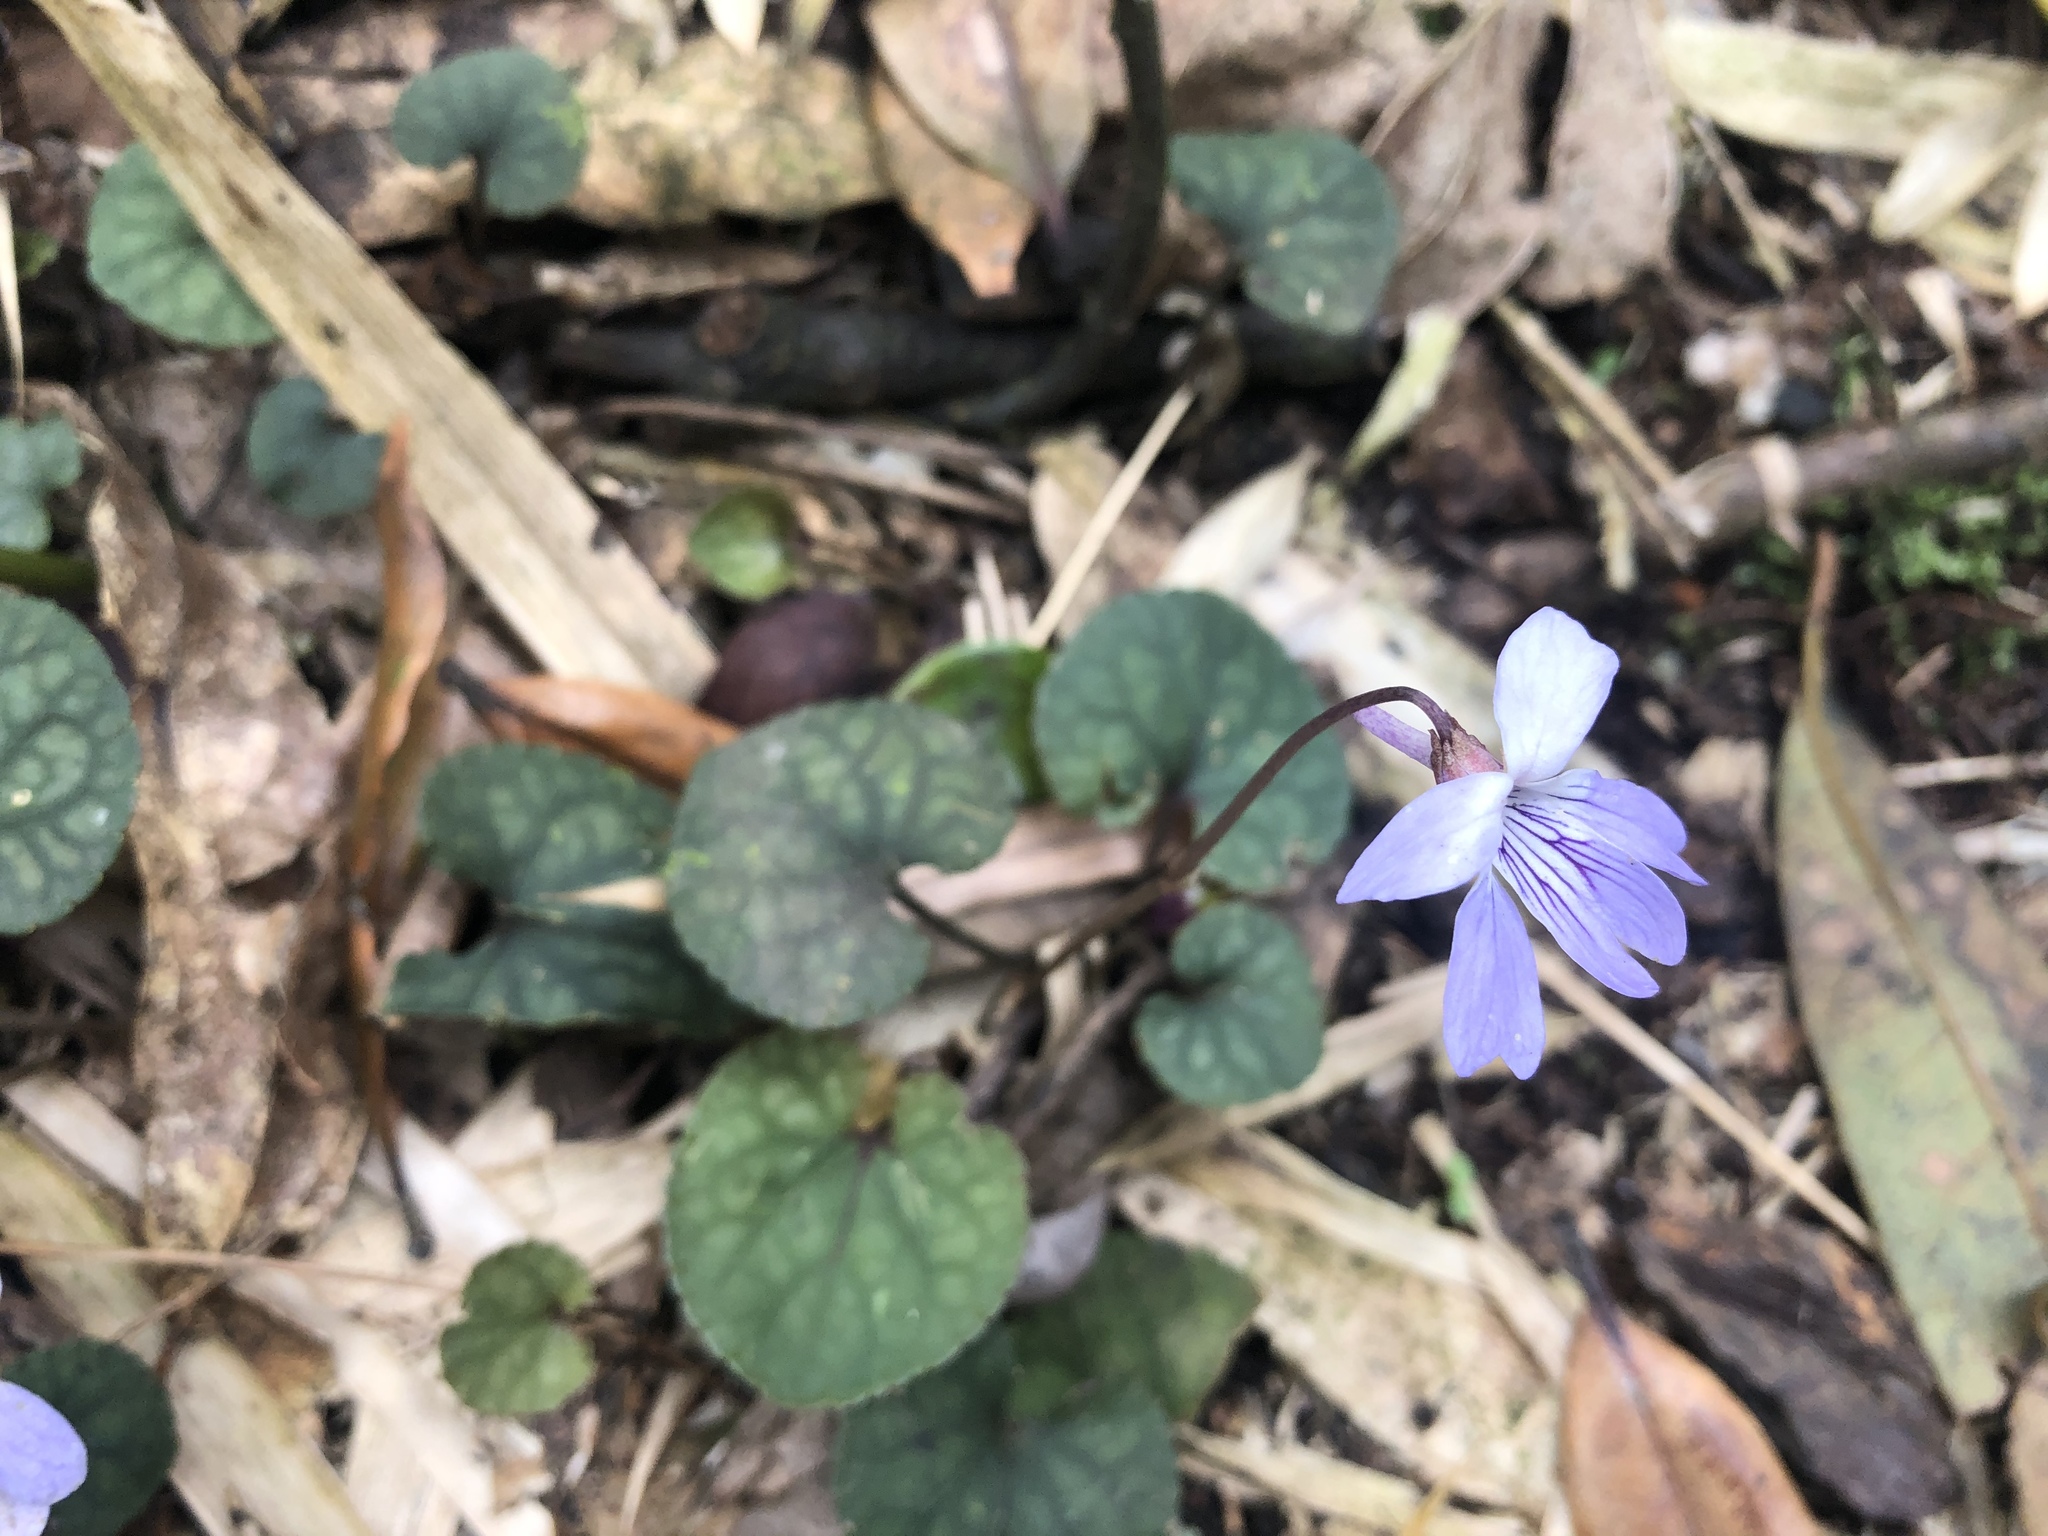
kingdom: Plantae
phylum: Tracheophyta
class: Magnoliopsida
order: Malpighiales
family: Violaceae
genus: Viola
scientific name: Viola formosana
